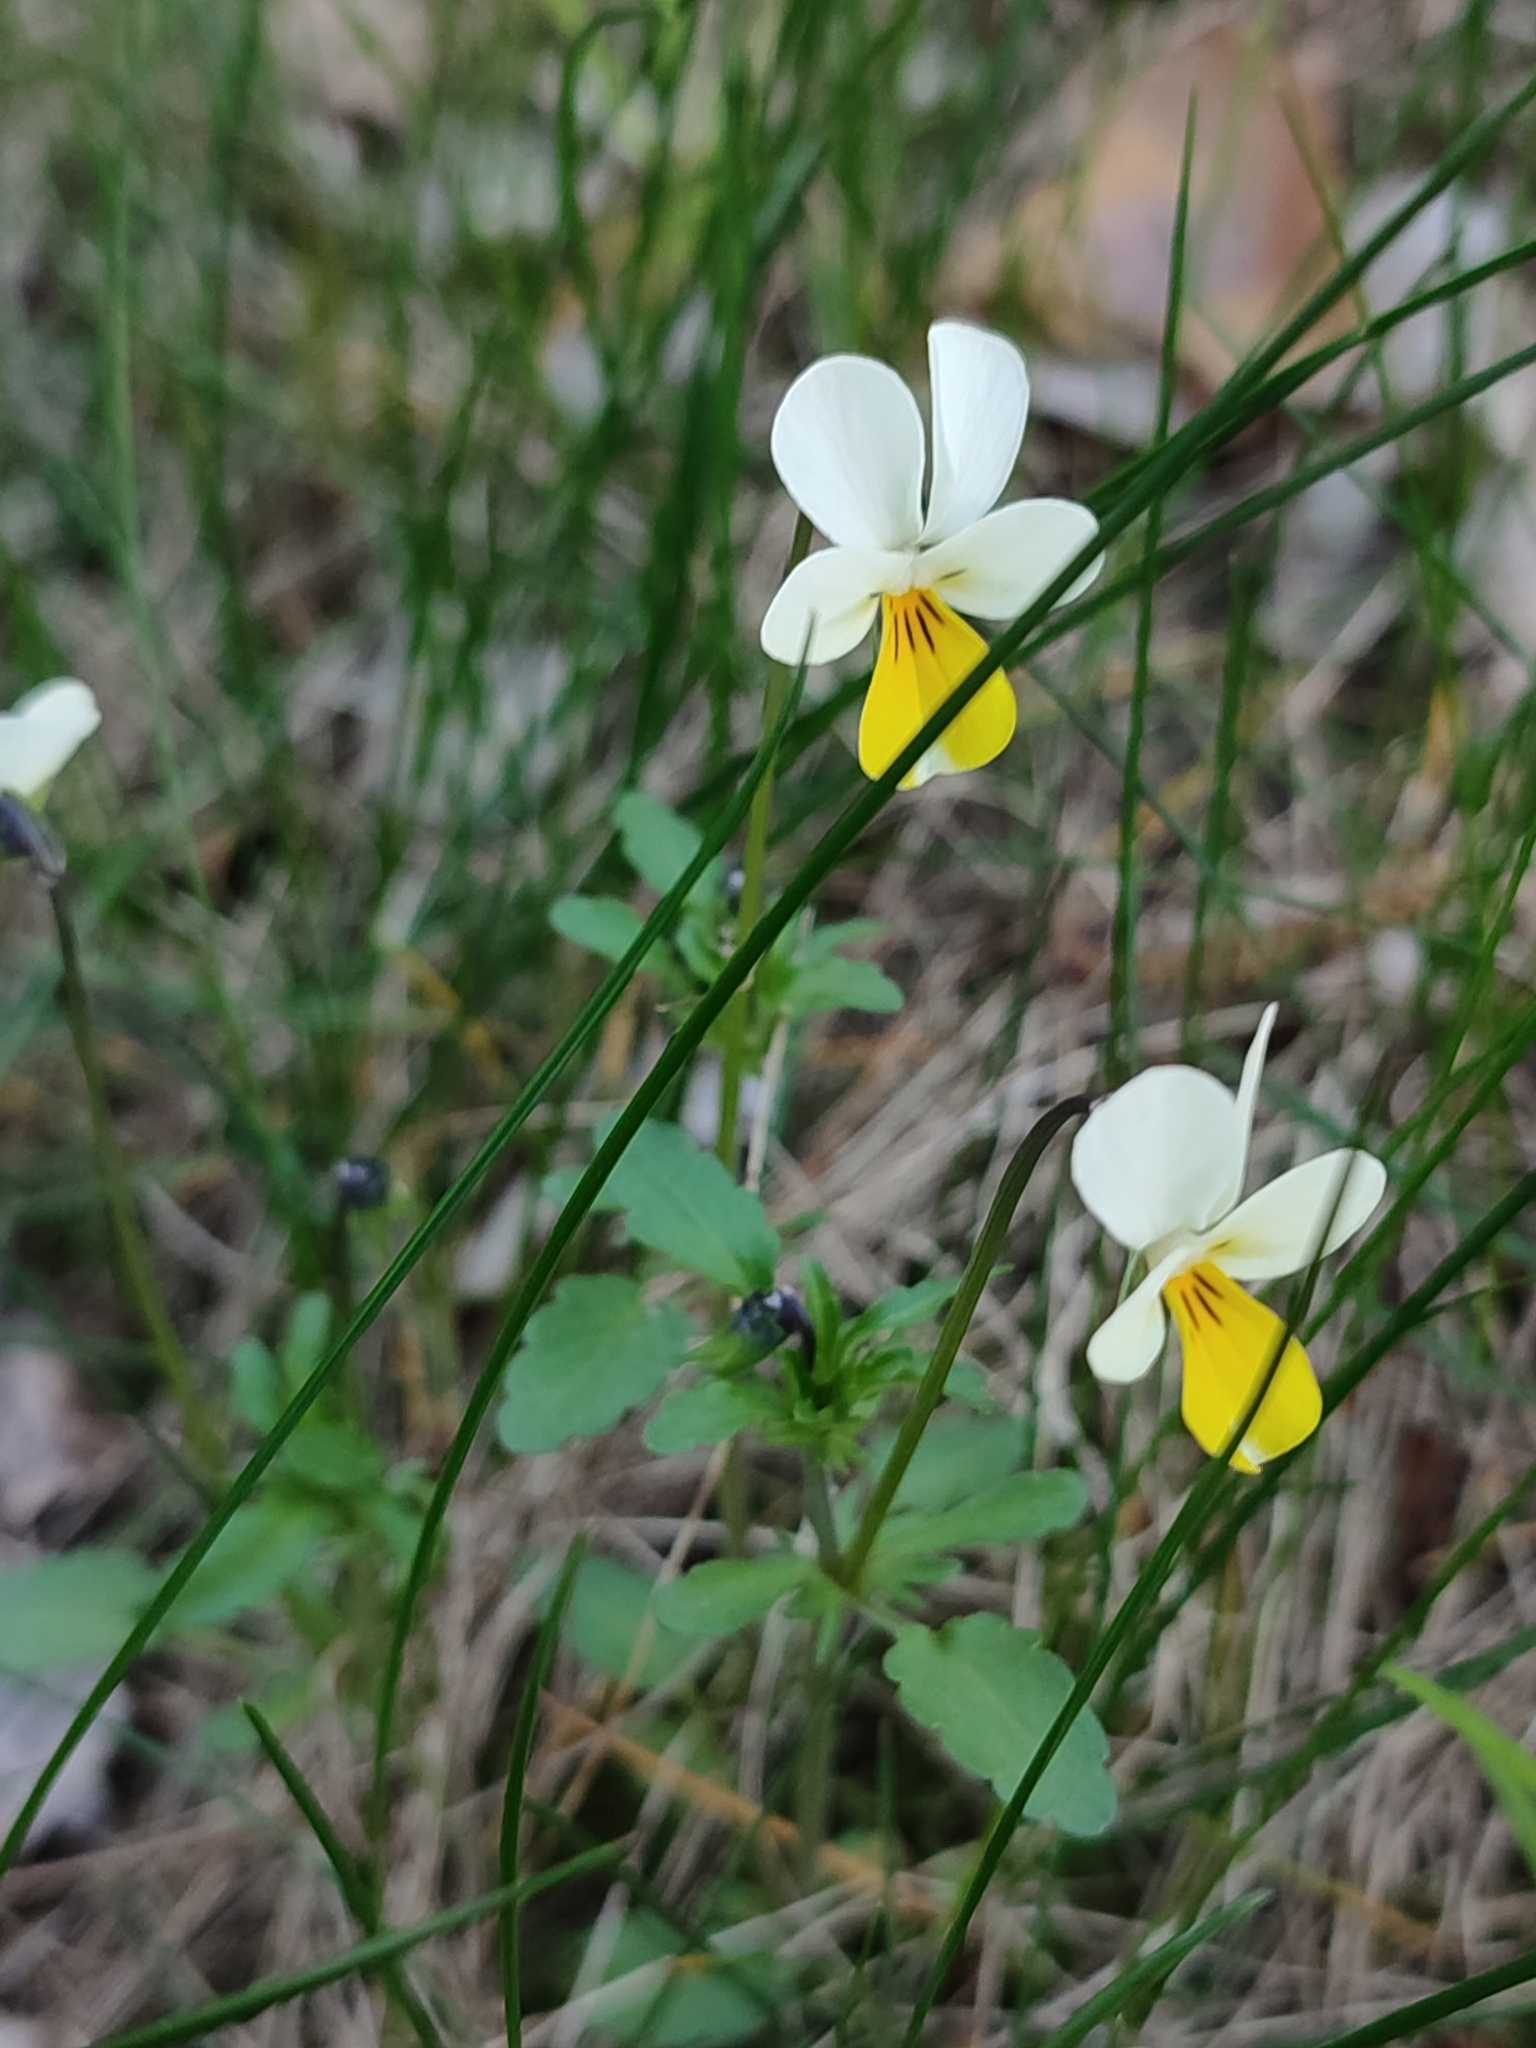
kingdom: Plantae
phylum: Tracheophyta
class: Magnoliopsida
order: Malpighiales
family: Violaceae
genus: Viola
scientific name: Viola arvensis
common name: Field pansy
